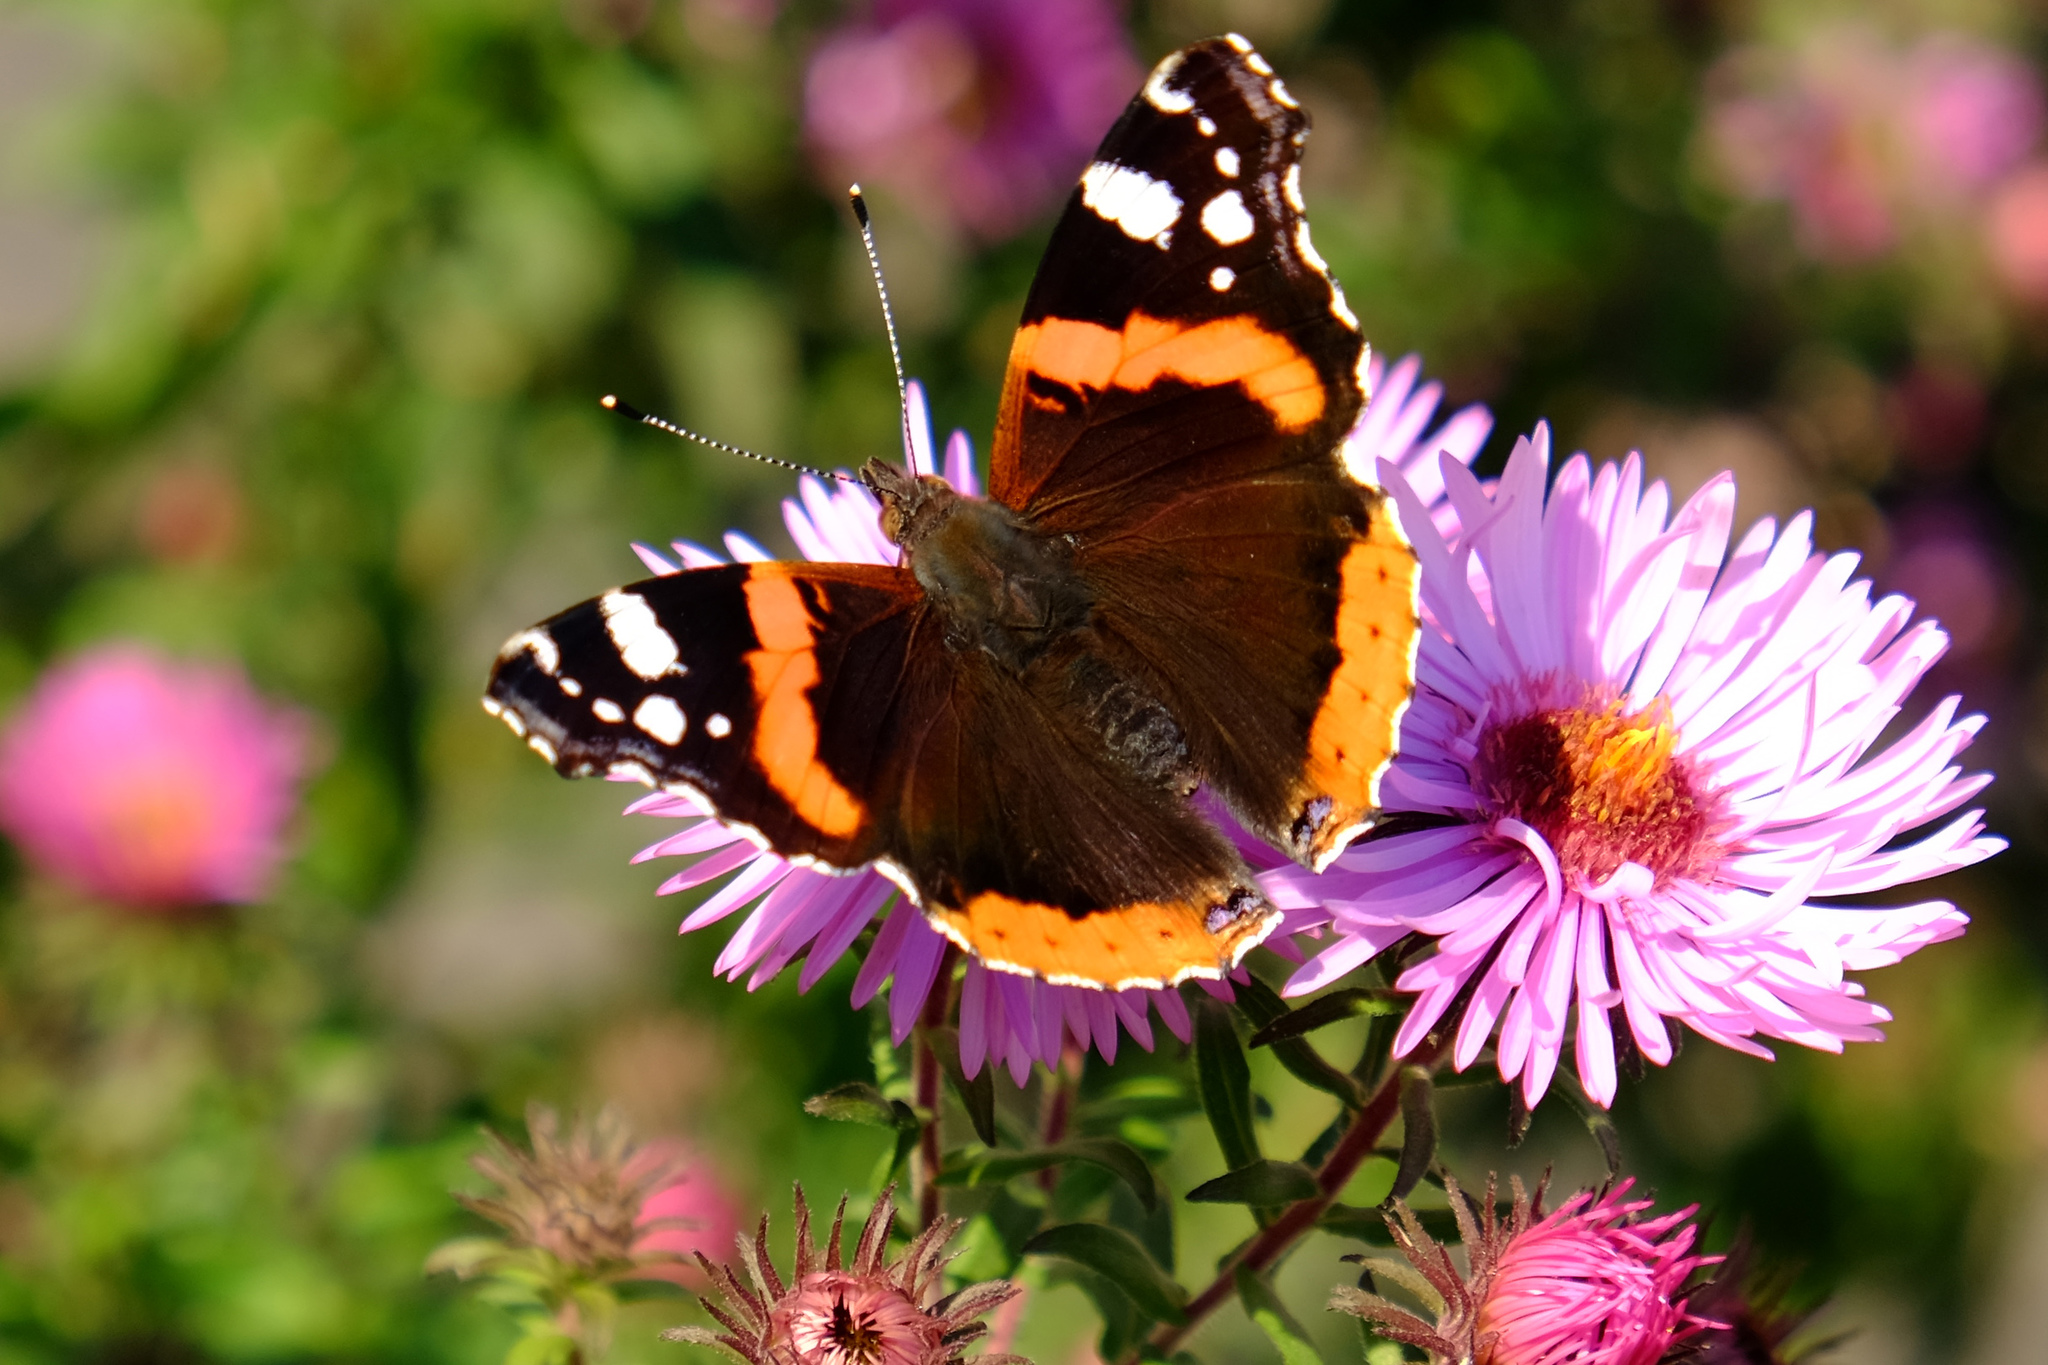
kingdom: Animalia
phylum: Arthropoda
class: Insecta
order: Lepidoptera
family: Nymphalidae
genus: Vanessa
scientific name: Vanessa atalanta
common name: Red admiral
